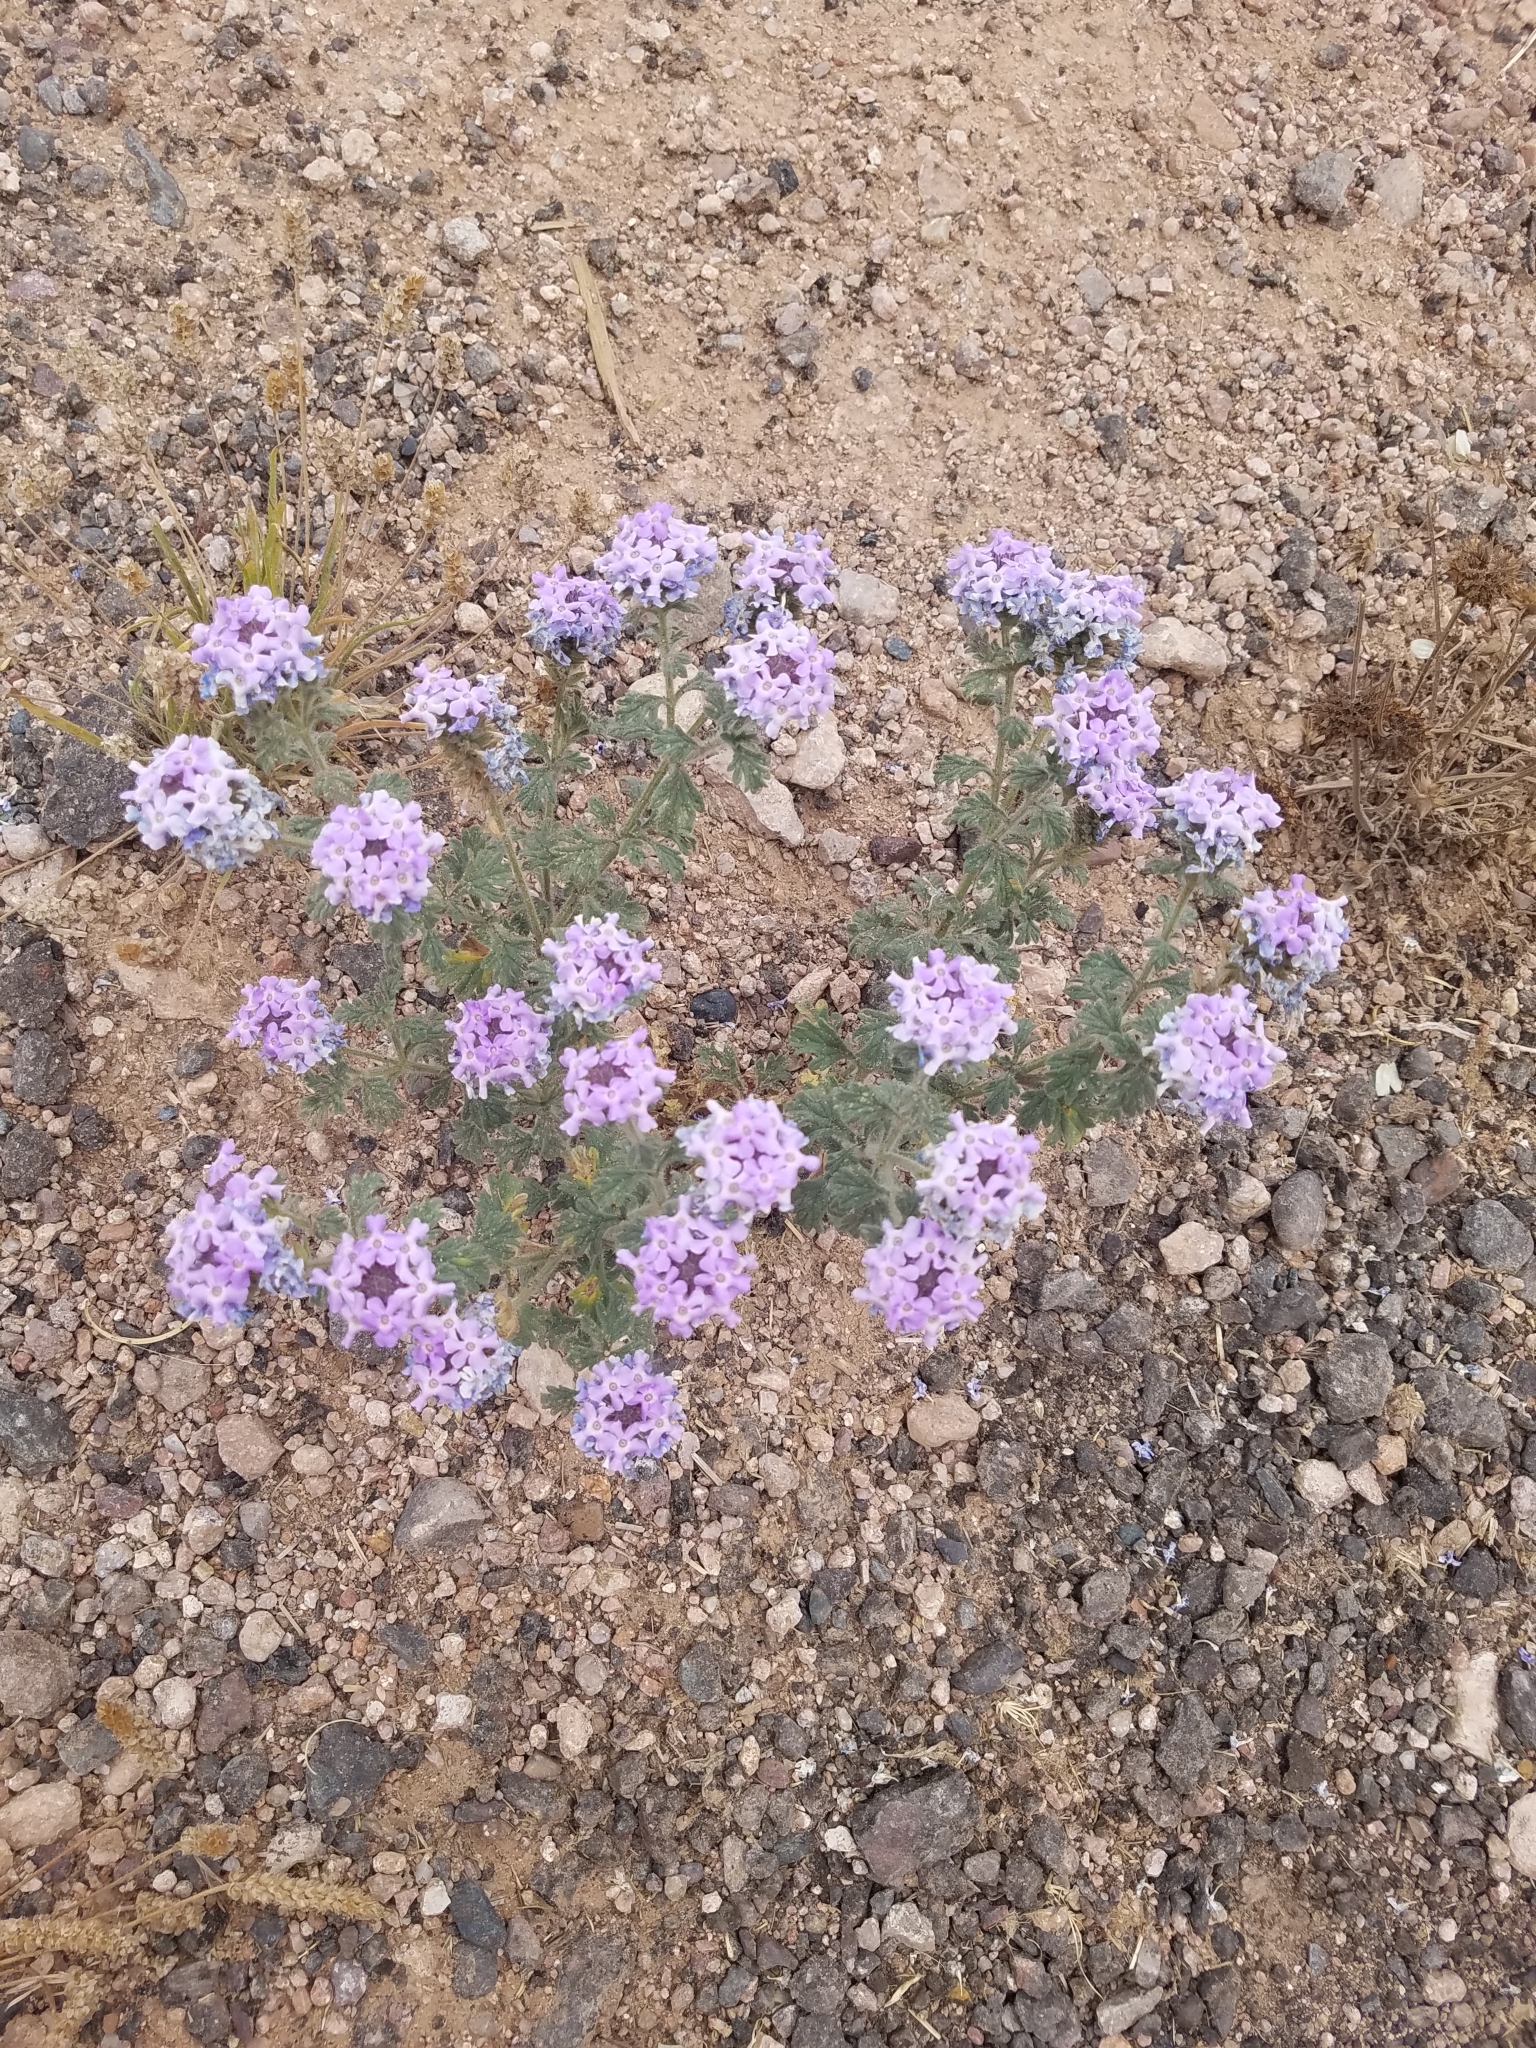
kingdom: Plantae
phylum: Tracheophyta
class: Magnoliopsida
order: Lamiales
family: Verbenaceae
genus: Verbena
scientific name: Verbena gooddingii
